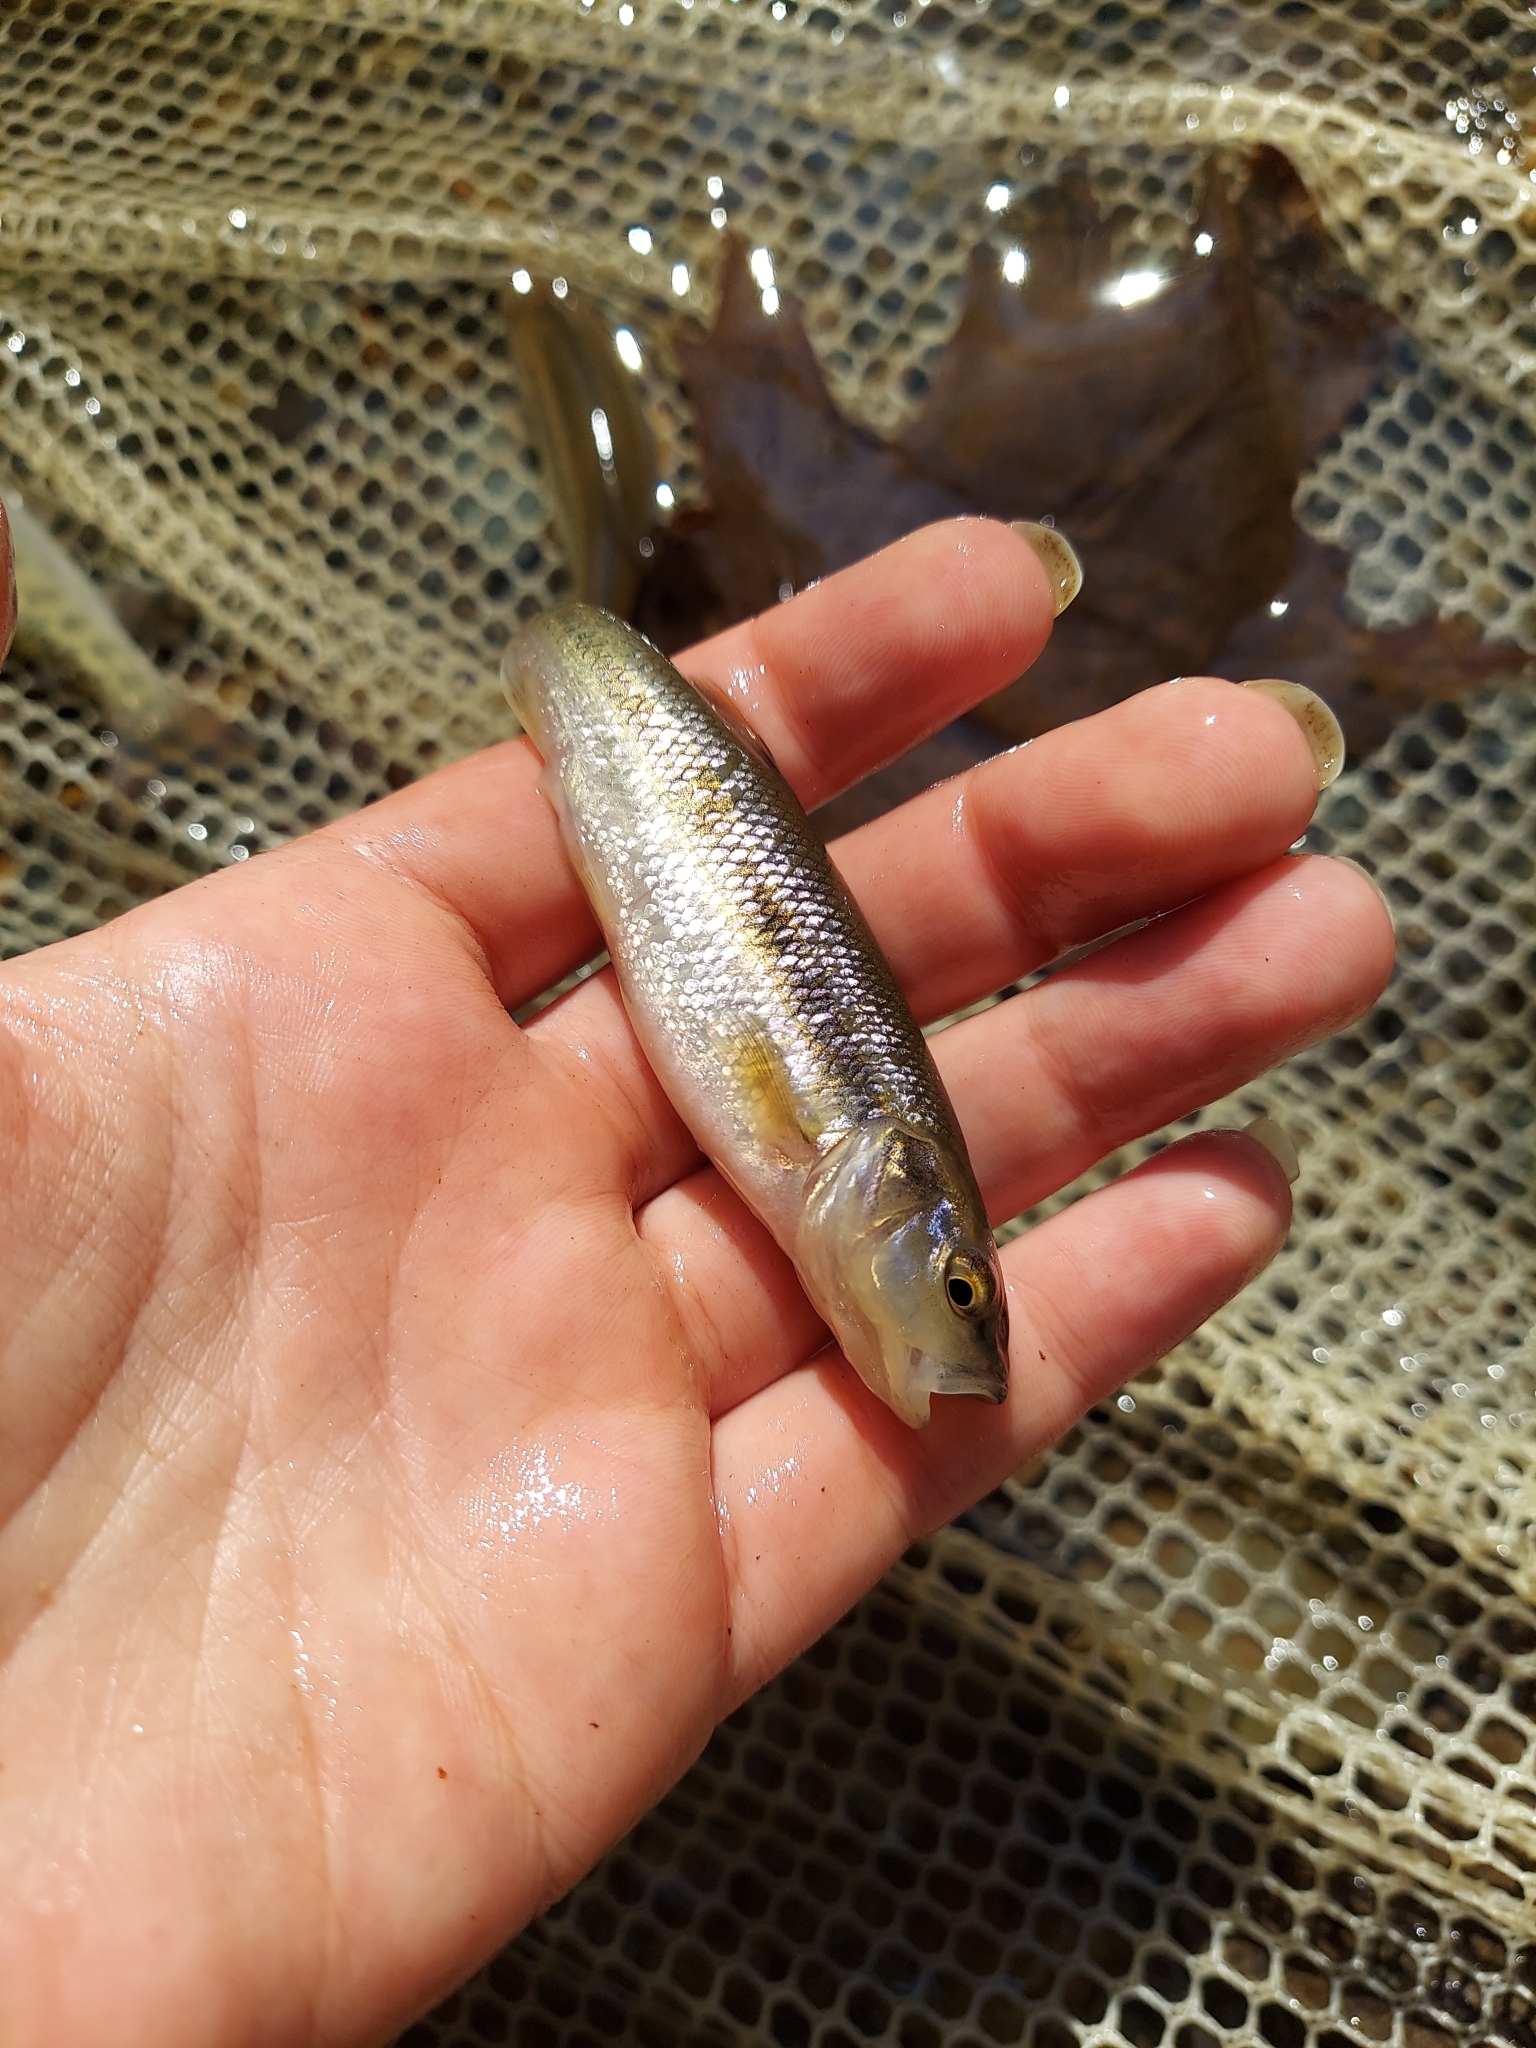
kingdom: Animalia
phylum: Chordata
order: Cypriniformes
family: Cyprinidae
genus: Semotilus
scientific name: Semotilus atromaculatus
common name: Creek chub
